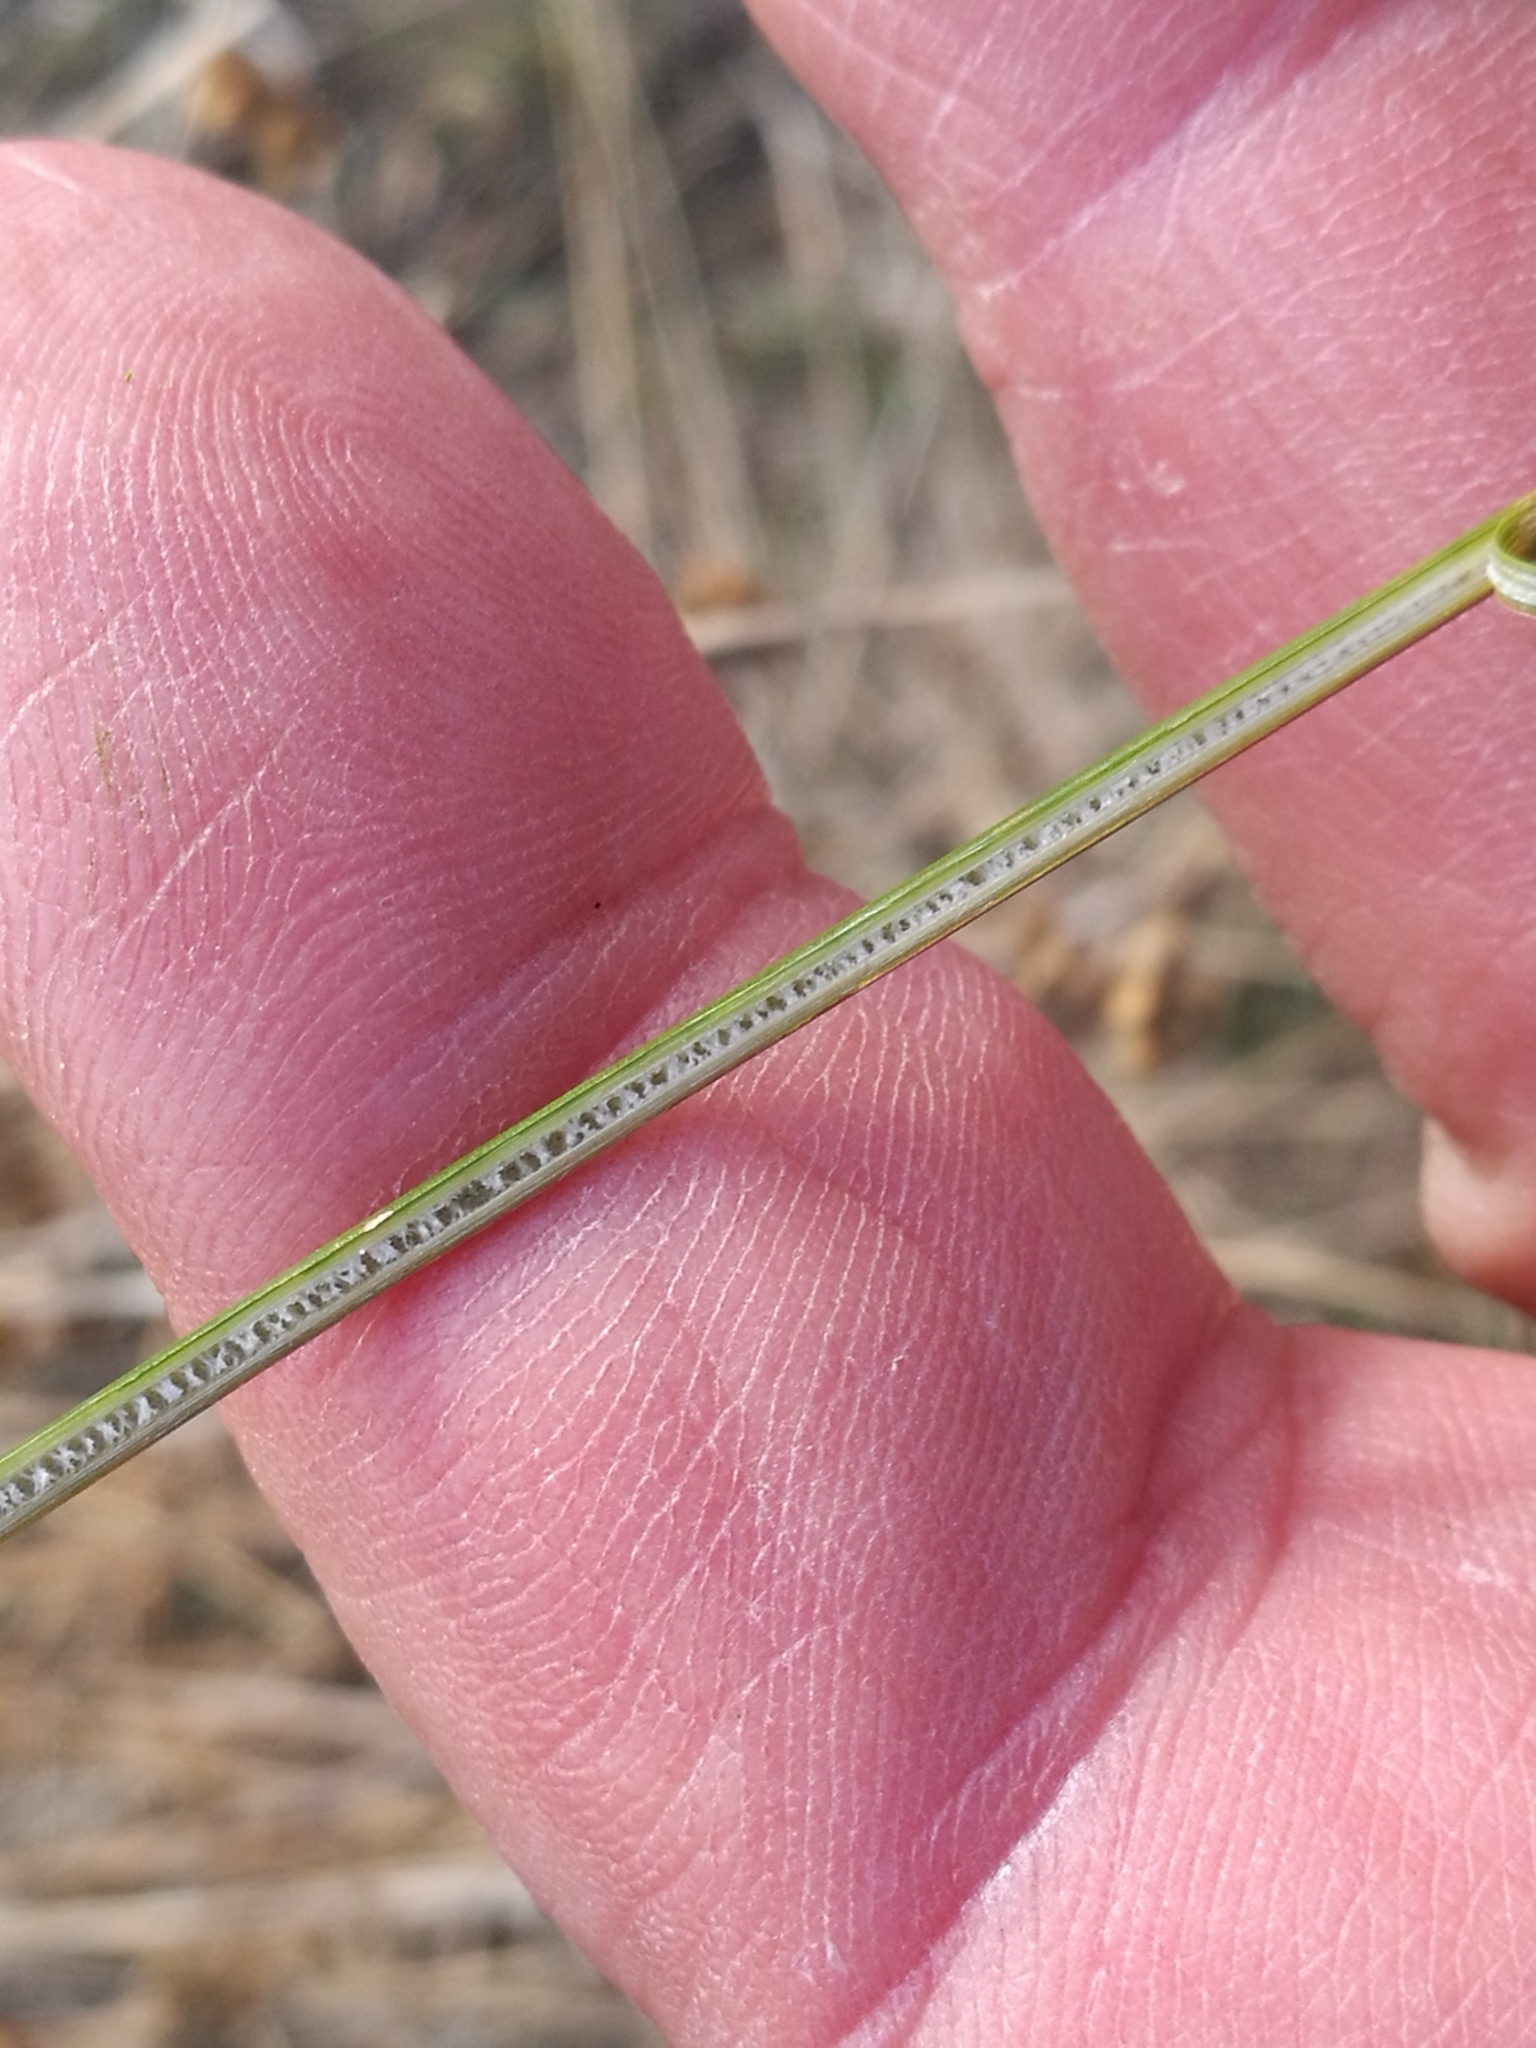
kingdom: Plantae
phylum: Tracheophyta
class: Liliopsida
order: Poales
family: Juncaceae
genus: Juncus
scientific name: Juncus distegus
